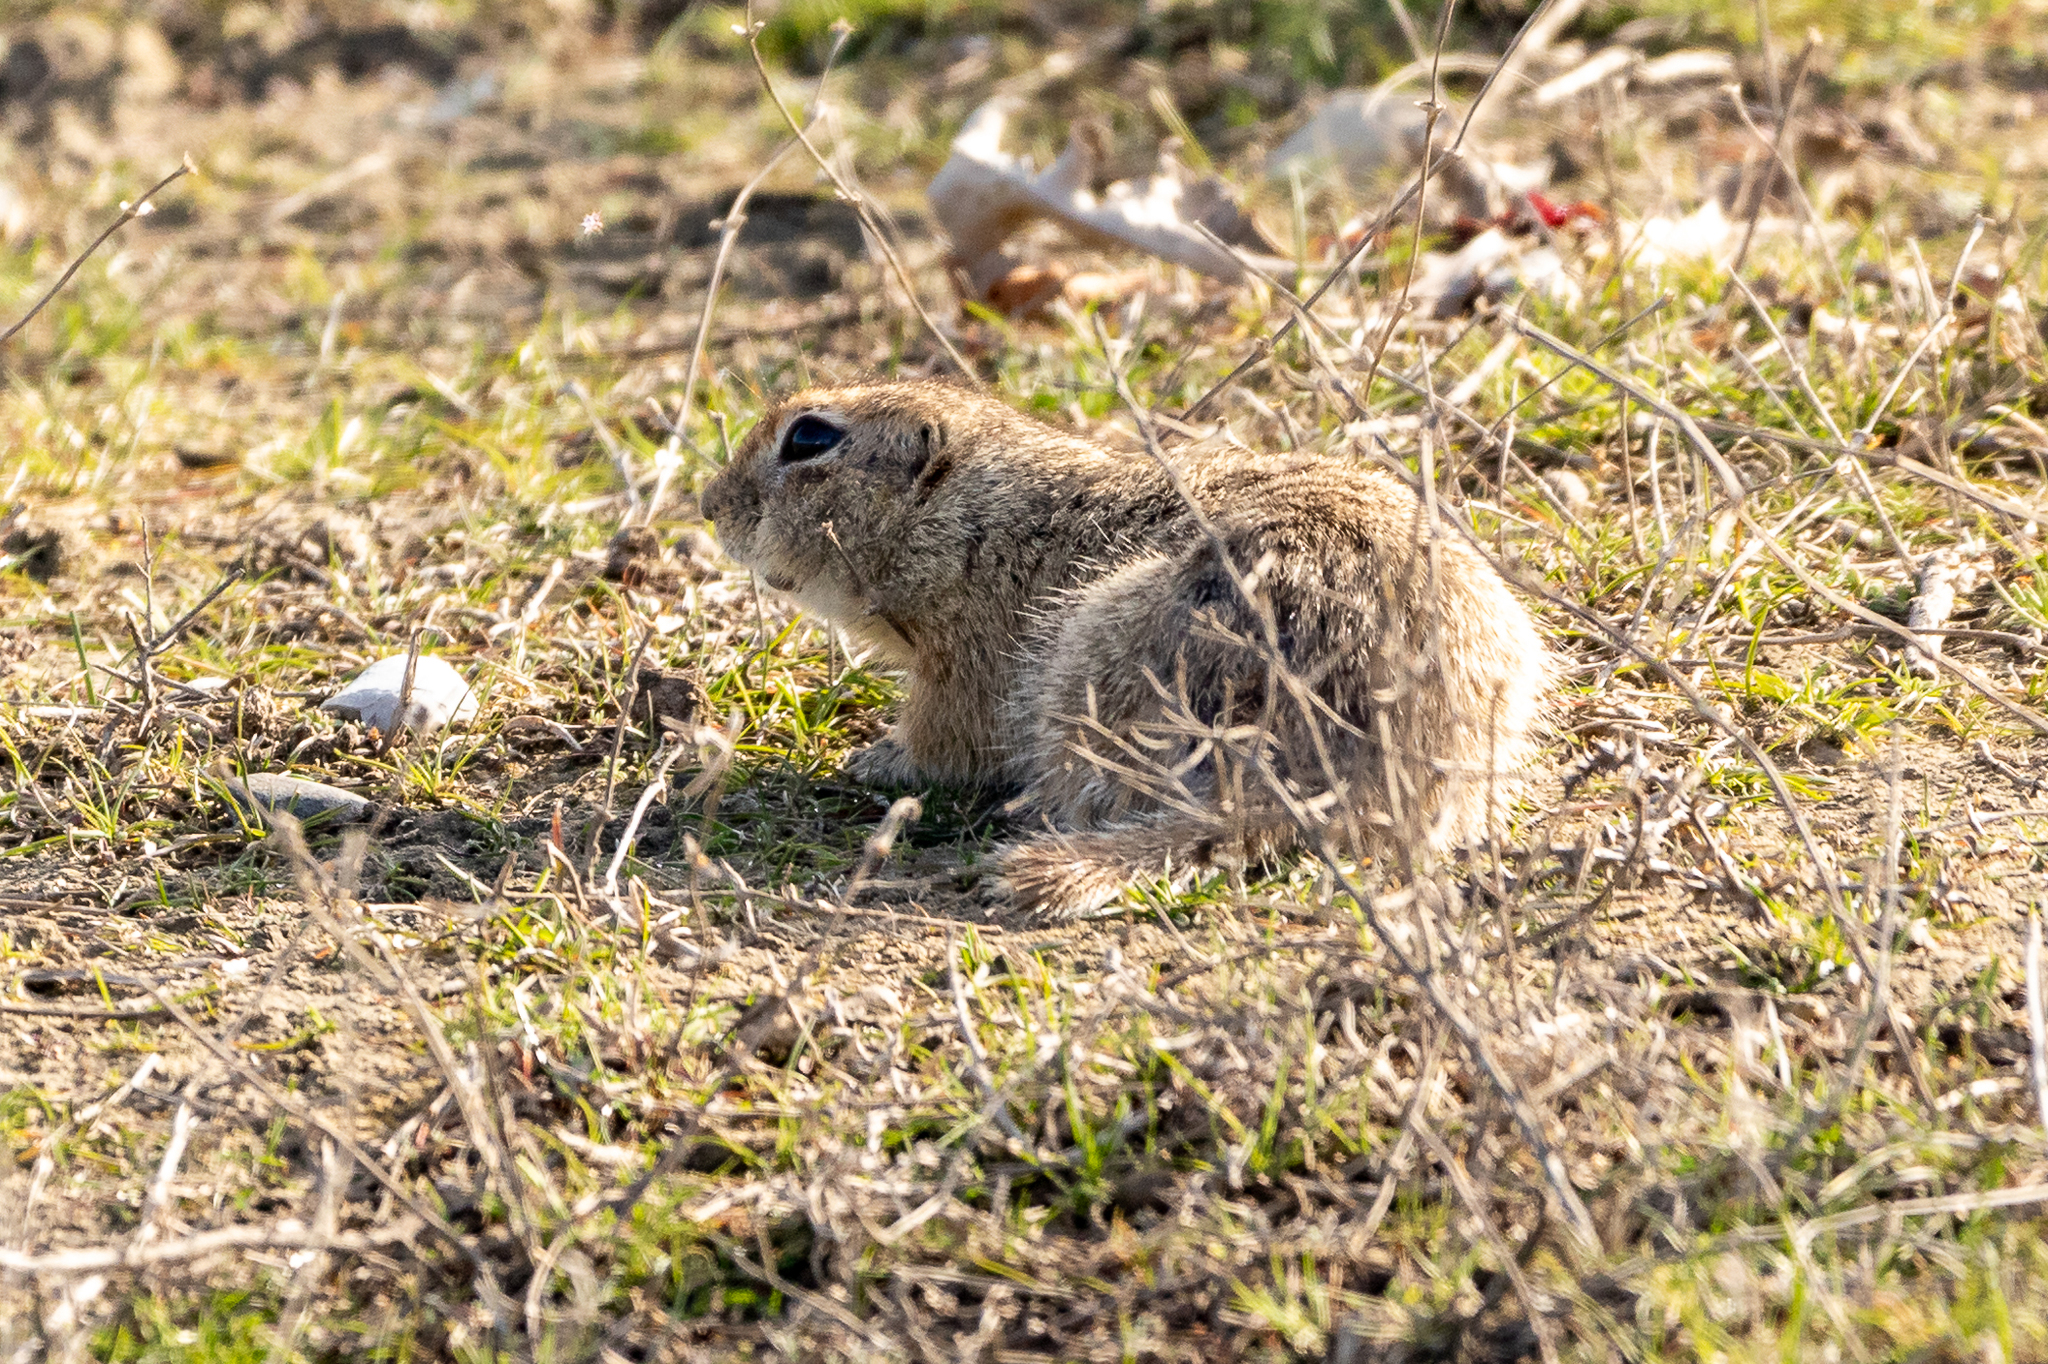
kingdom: Animalia
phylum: Chordata
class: Mammalia
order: Rodentia
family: Sciuridae
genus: Spermophilus
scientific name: Spermophilus pygmaeus
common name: Little ground squirrel
